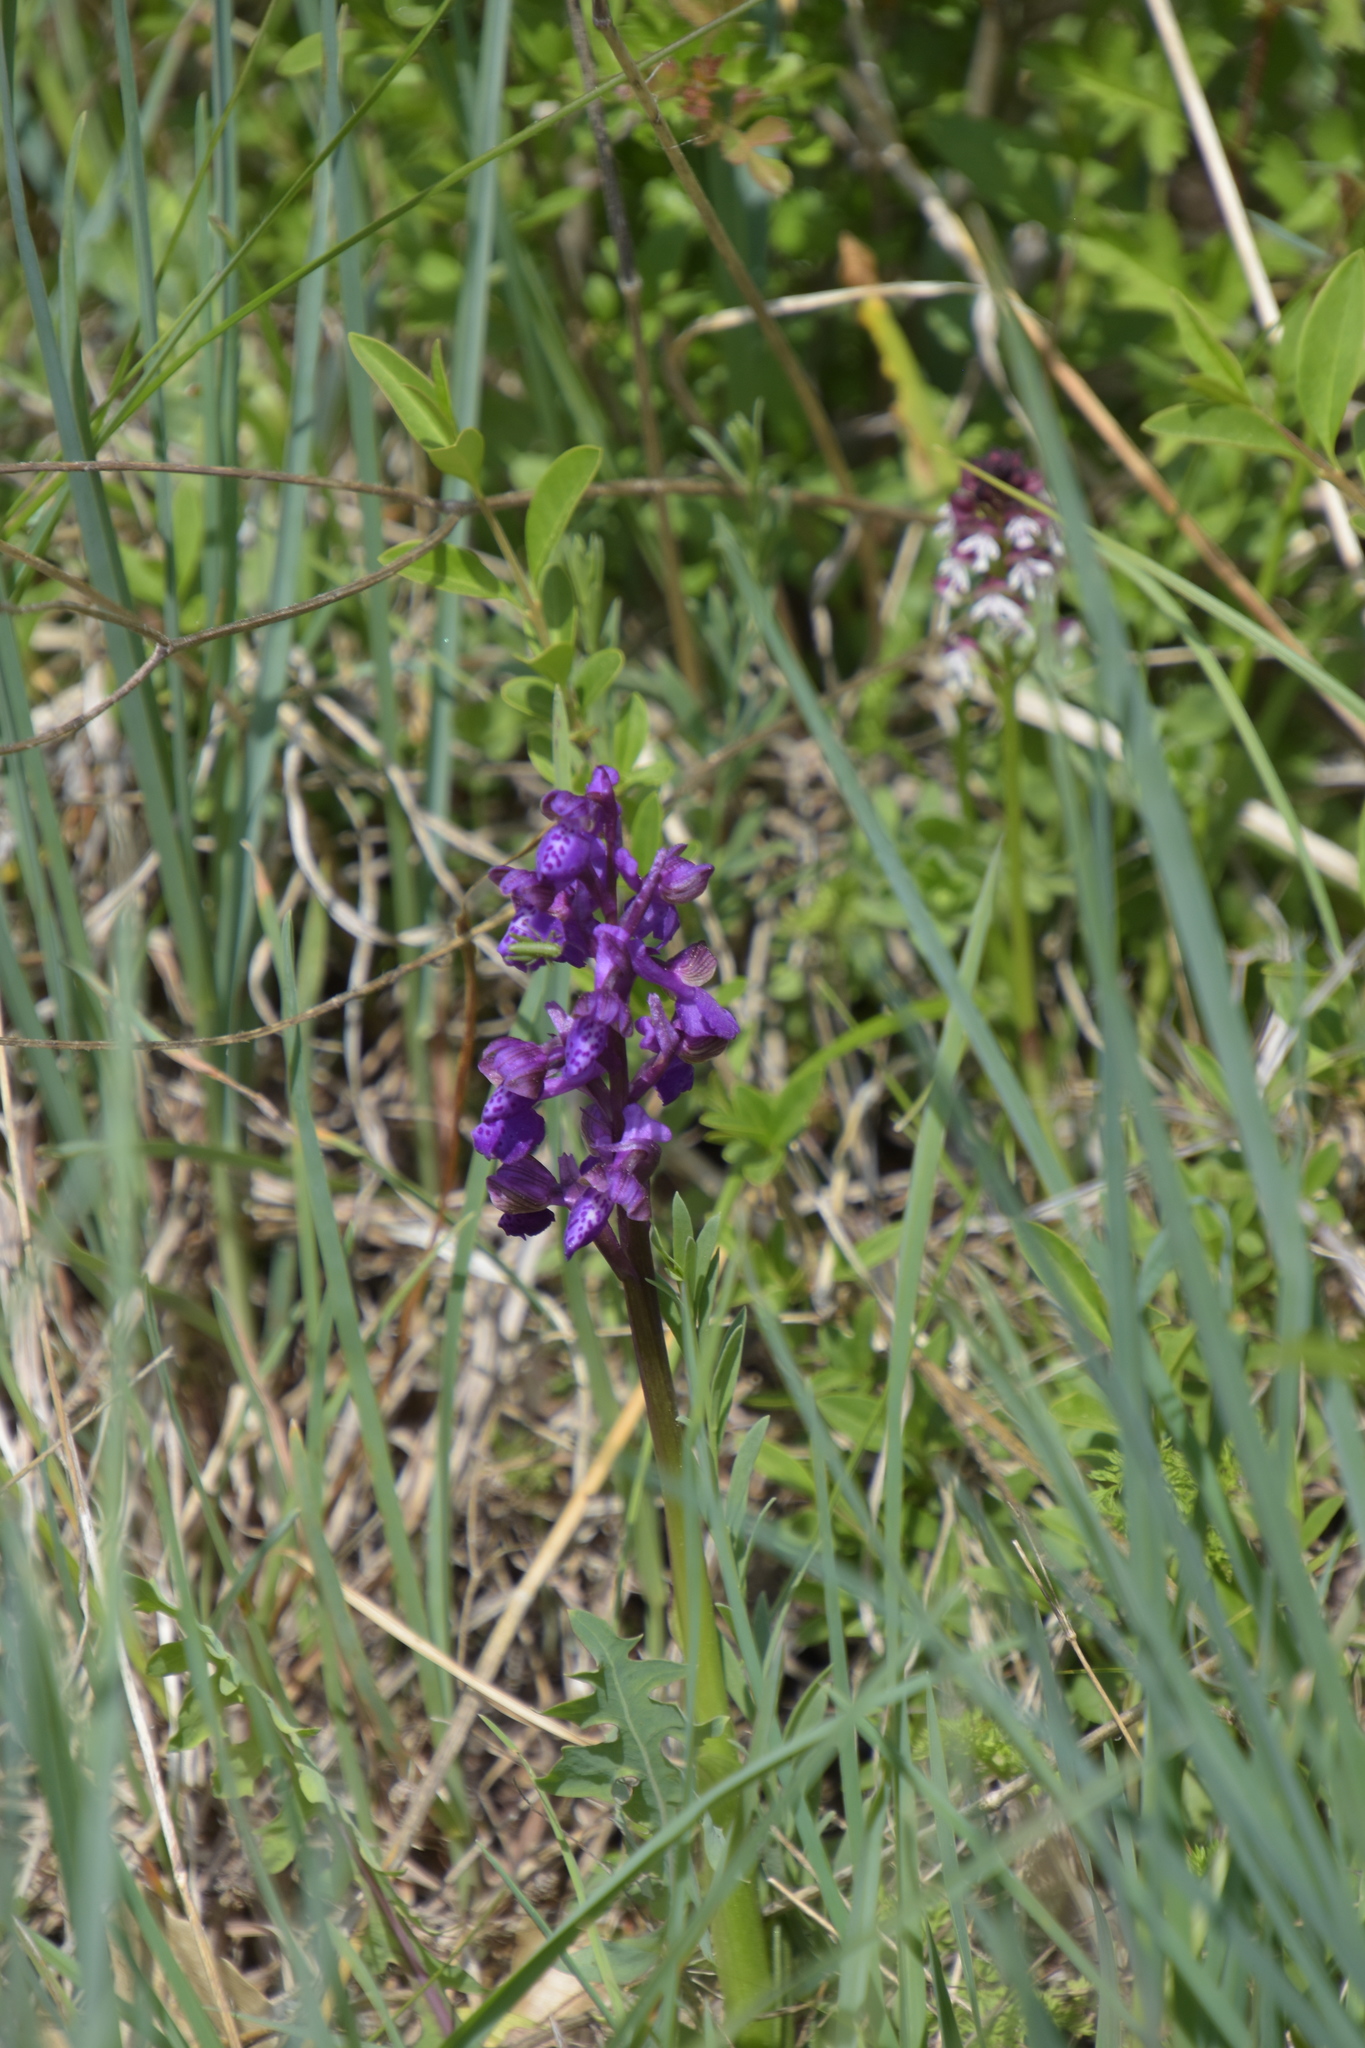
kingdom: Plantae
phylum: Tracheophyta
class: Liliopsida
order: Asparagales
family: Orchidaceae
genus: Anacamptis
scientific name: Anacamptis morio
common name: Green-winged orchid
